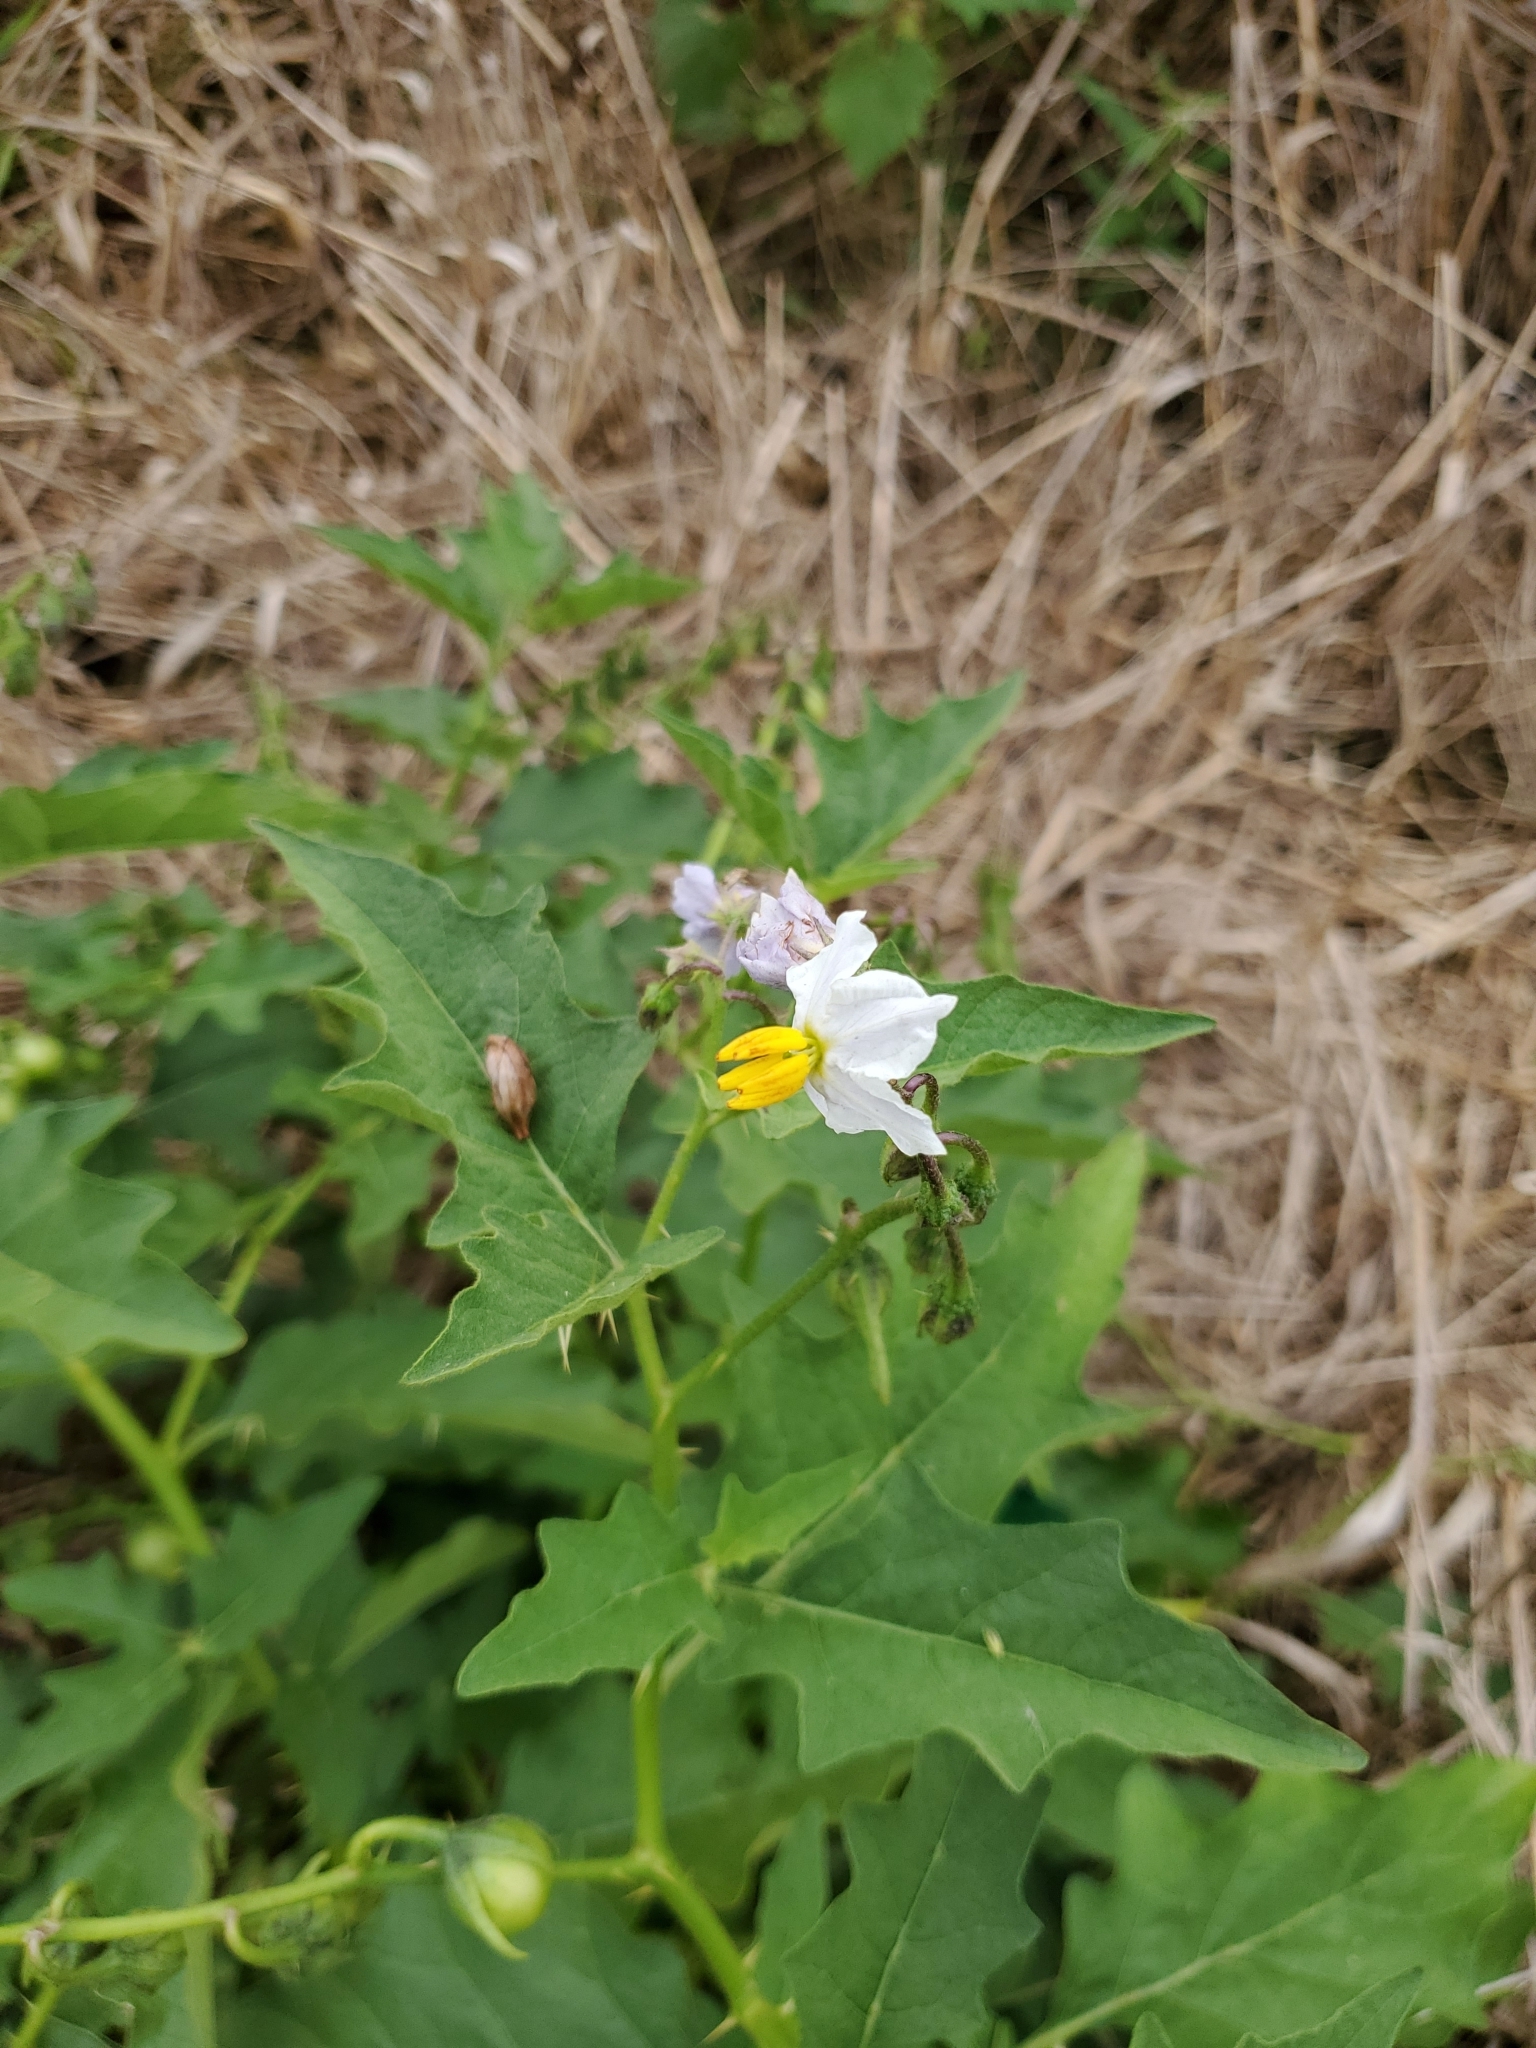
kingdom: Plantae
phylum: Tracheophyta
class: Magnoliopsida
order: Solanales
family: Solanaceae
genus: Solanum
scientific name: Solanum carolinense
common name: Horse-nettle
